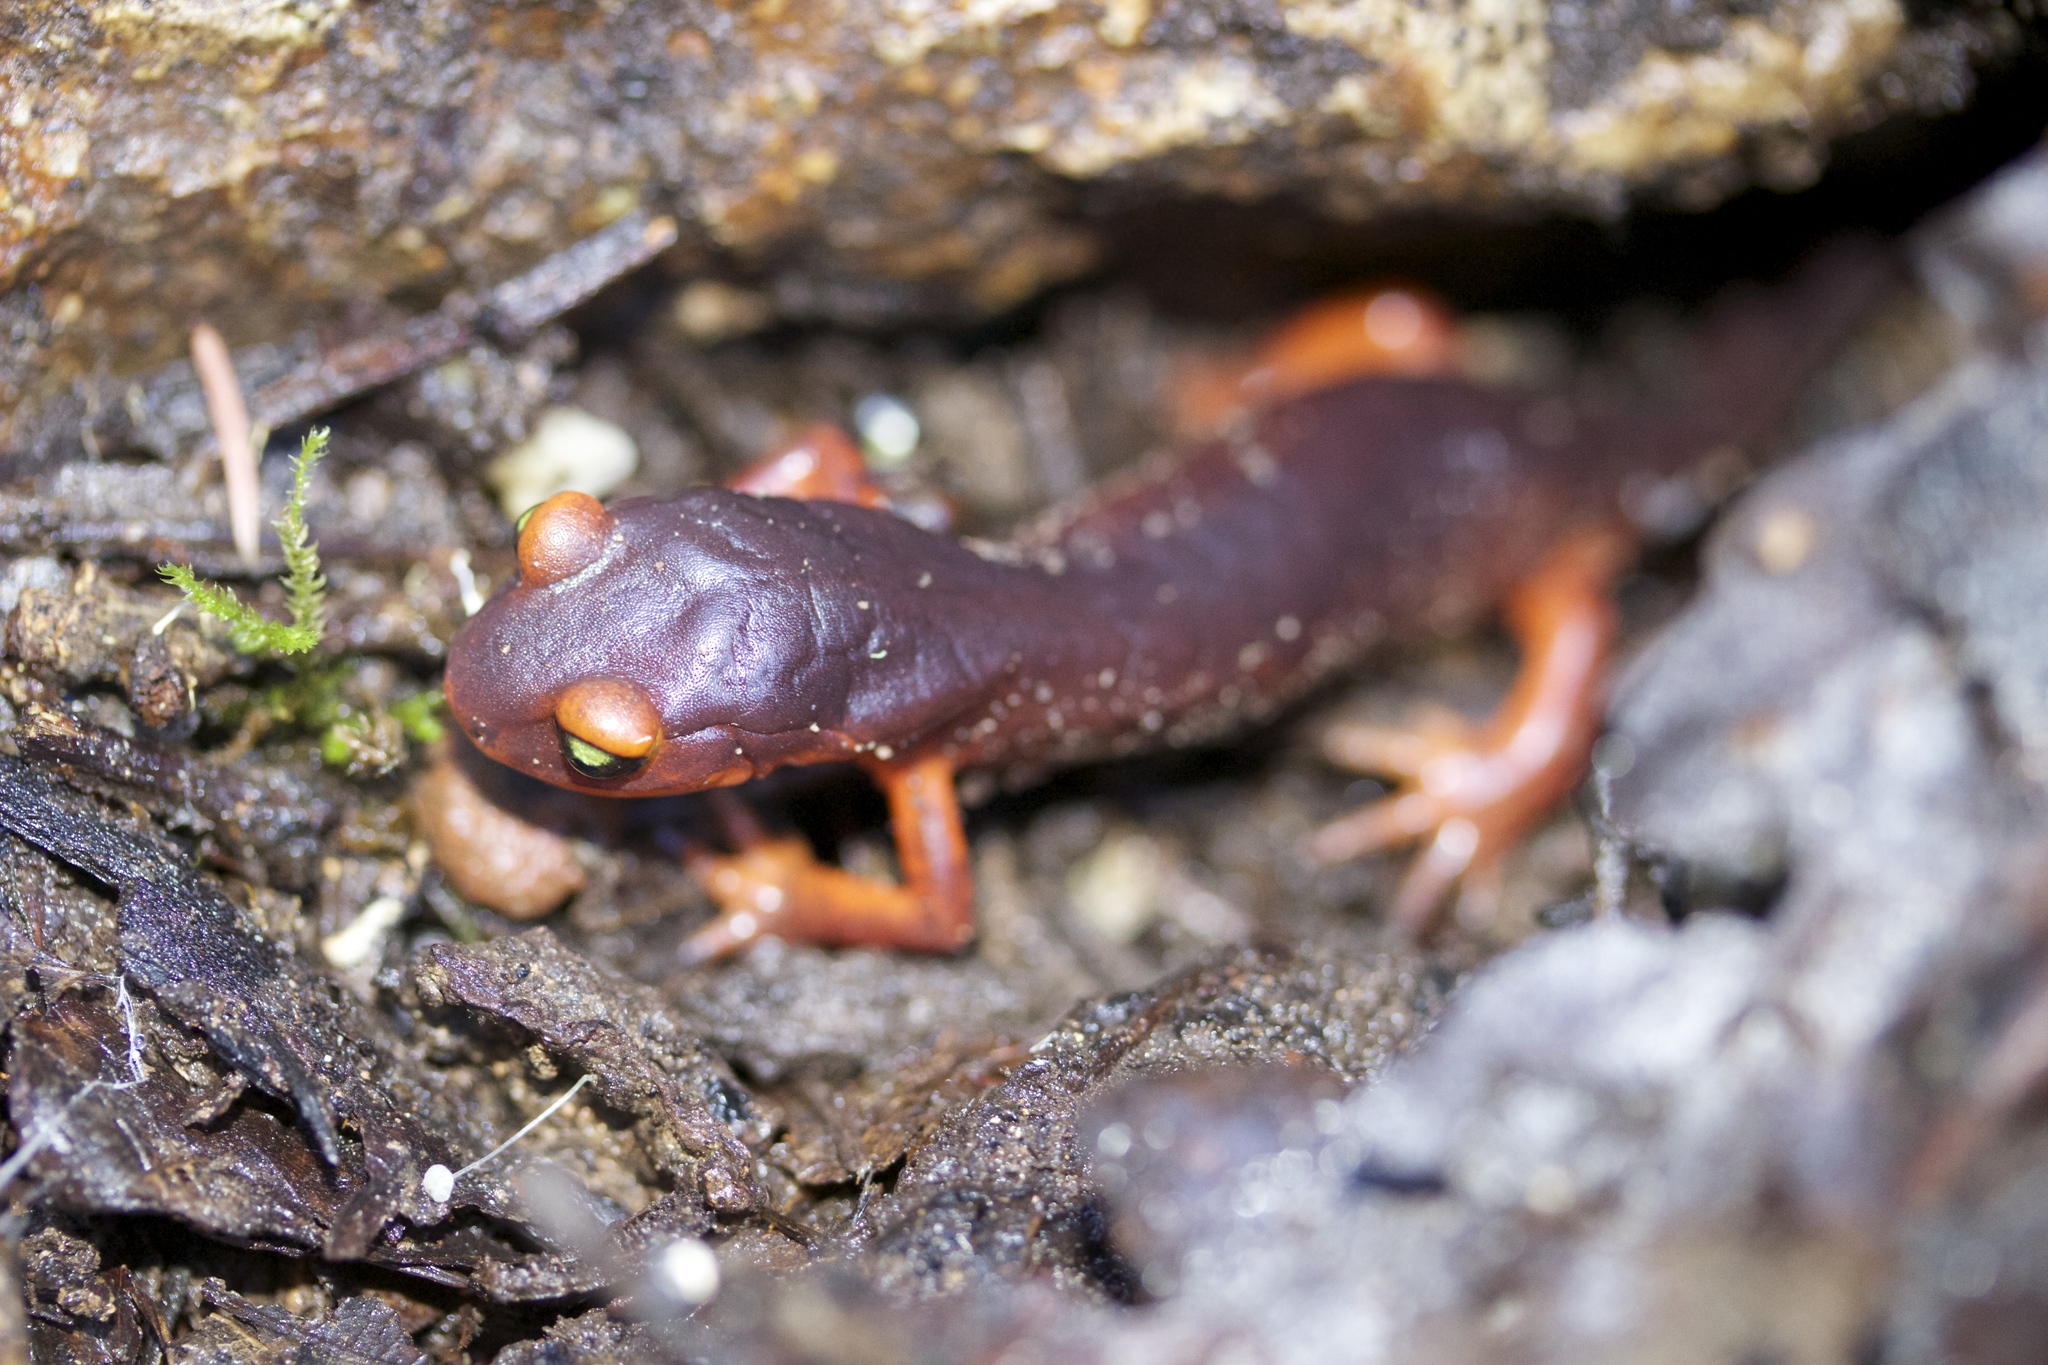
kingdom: Animalia
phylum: Chordata
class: Amphibia
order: Caudata
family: Plethodontidae
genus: Ensatina
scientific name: Ensatina eschscholtzii
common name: Ensatina
